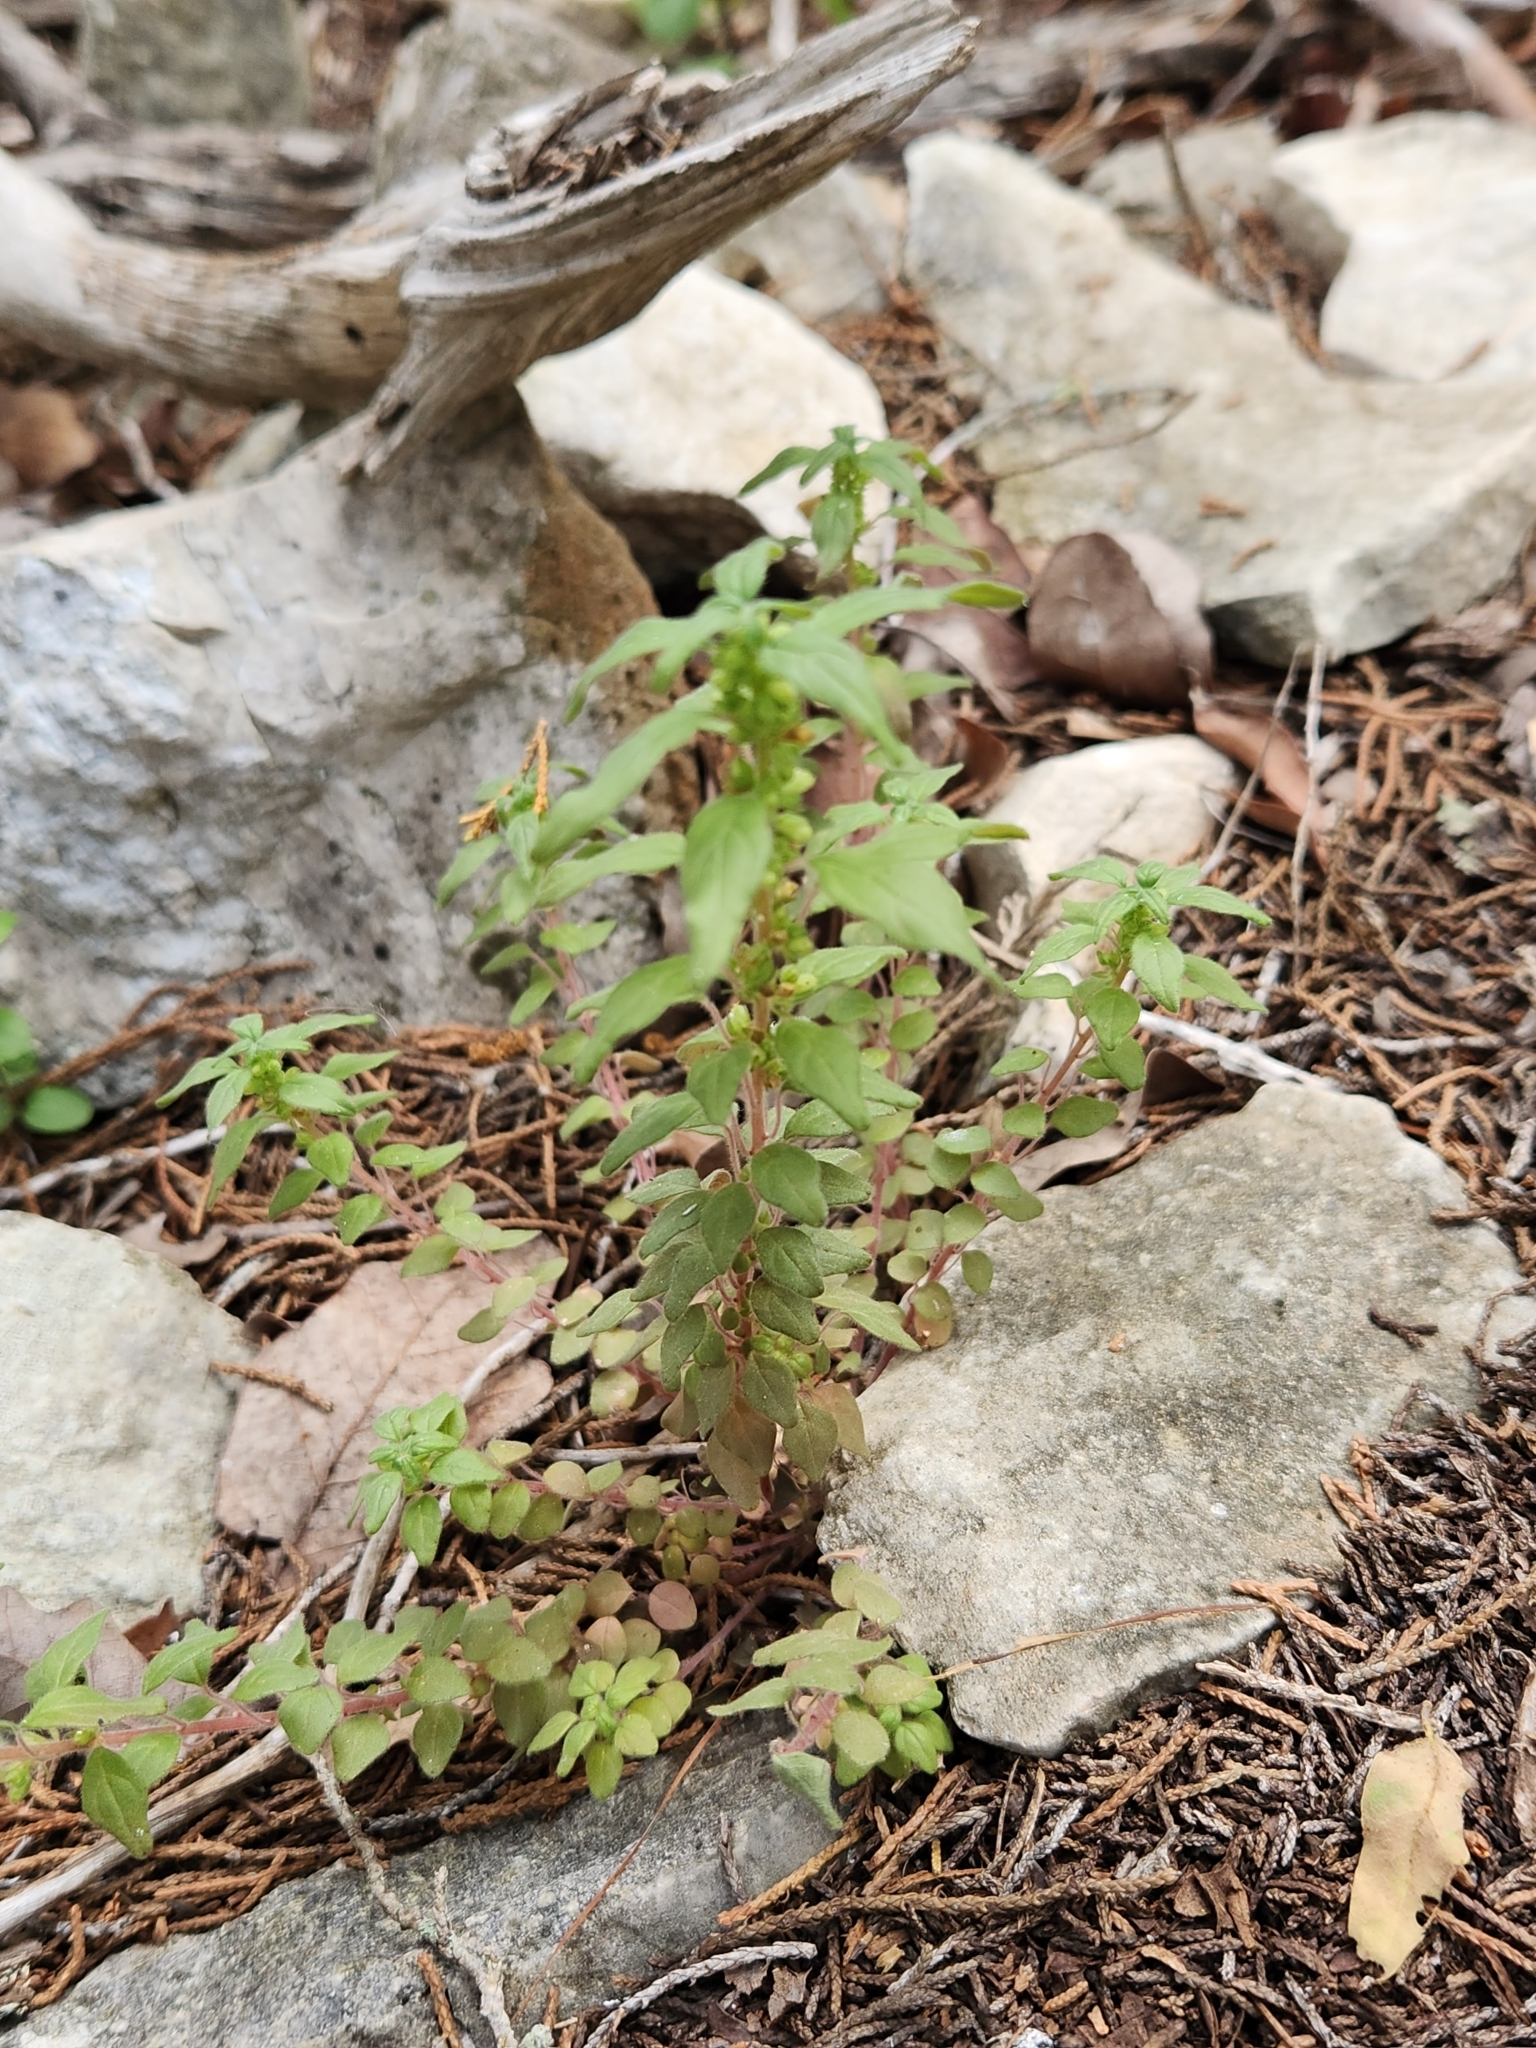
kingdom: Plantae
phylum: Tracheophyta
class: Magnoliopsida
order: Rosales
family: Urticaceae
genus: Parietaria
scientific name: Parietaria pensylvanica
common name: Pennsylvania pellitory
